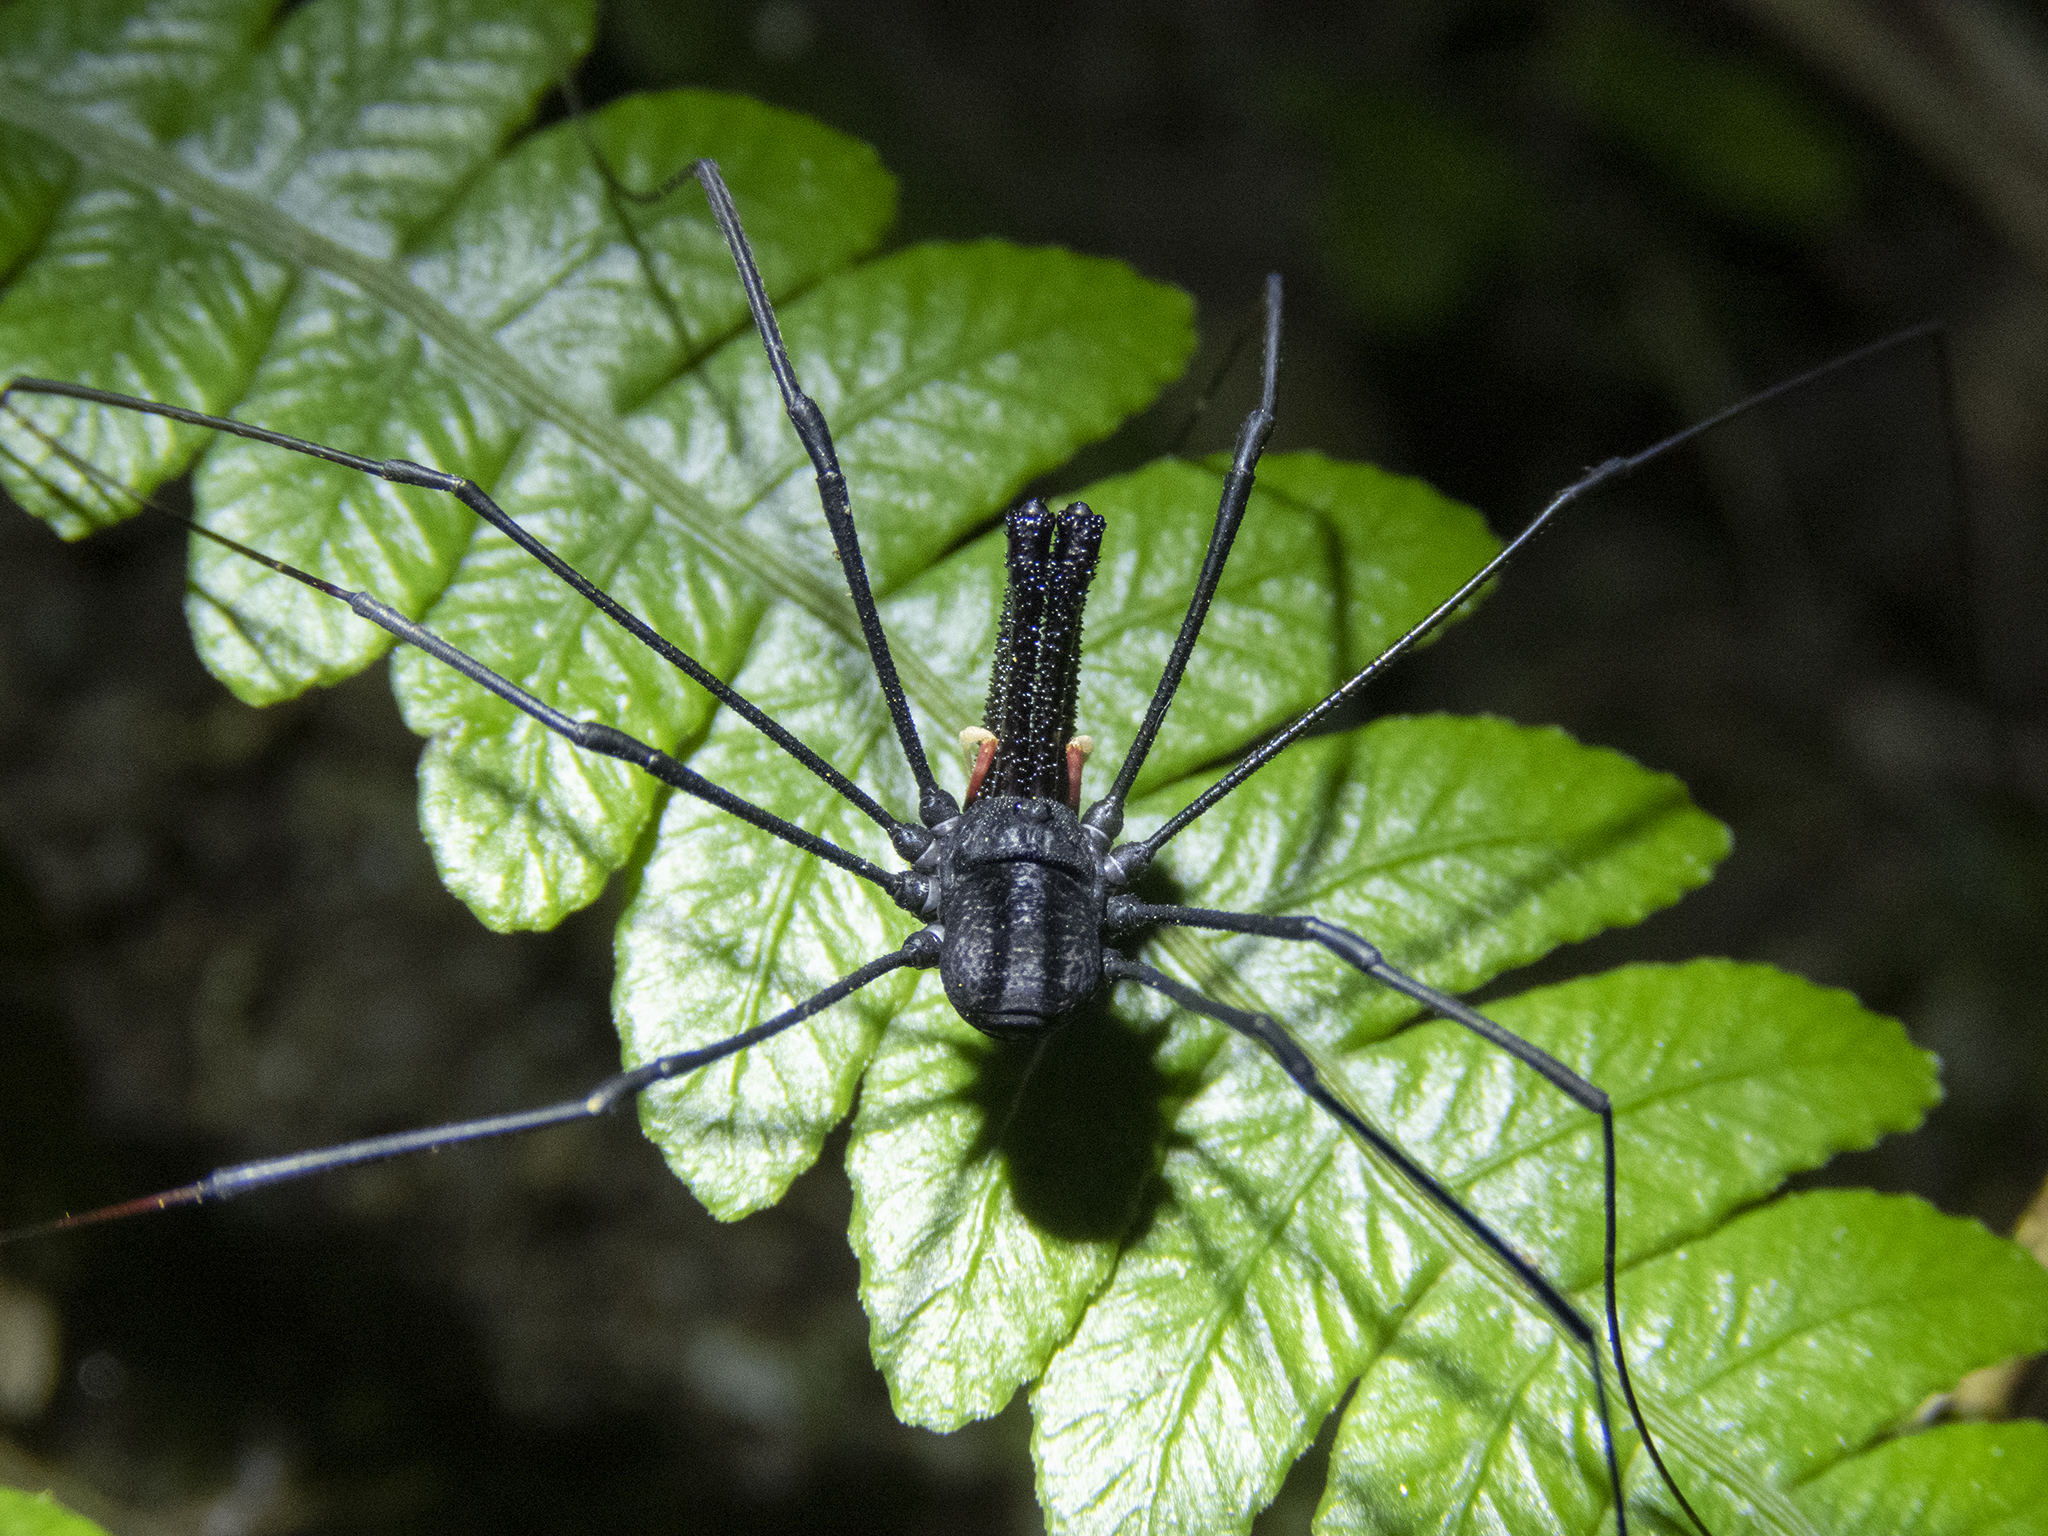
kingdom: Animalia
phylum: Arthropoda
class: Arachnida
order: Opiliones
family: Neopilionidae
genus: Forsteropsalis
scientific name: Forsteropsalis inconstans
